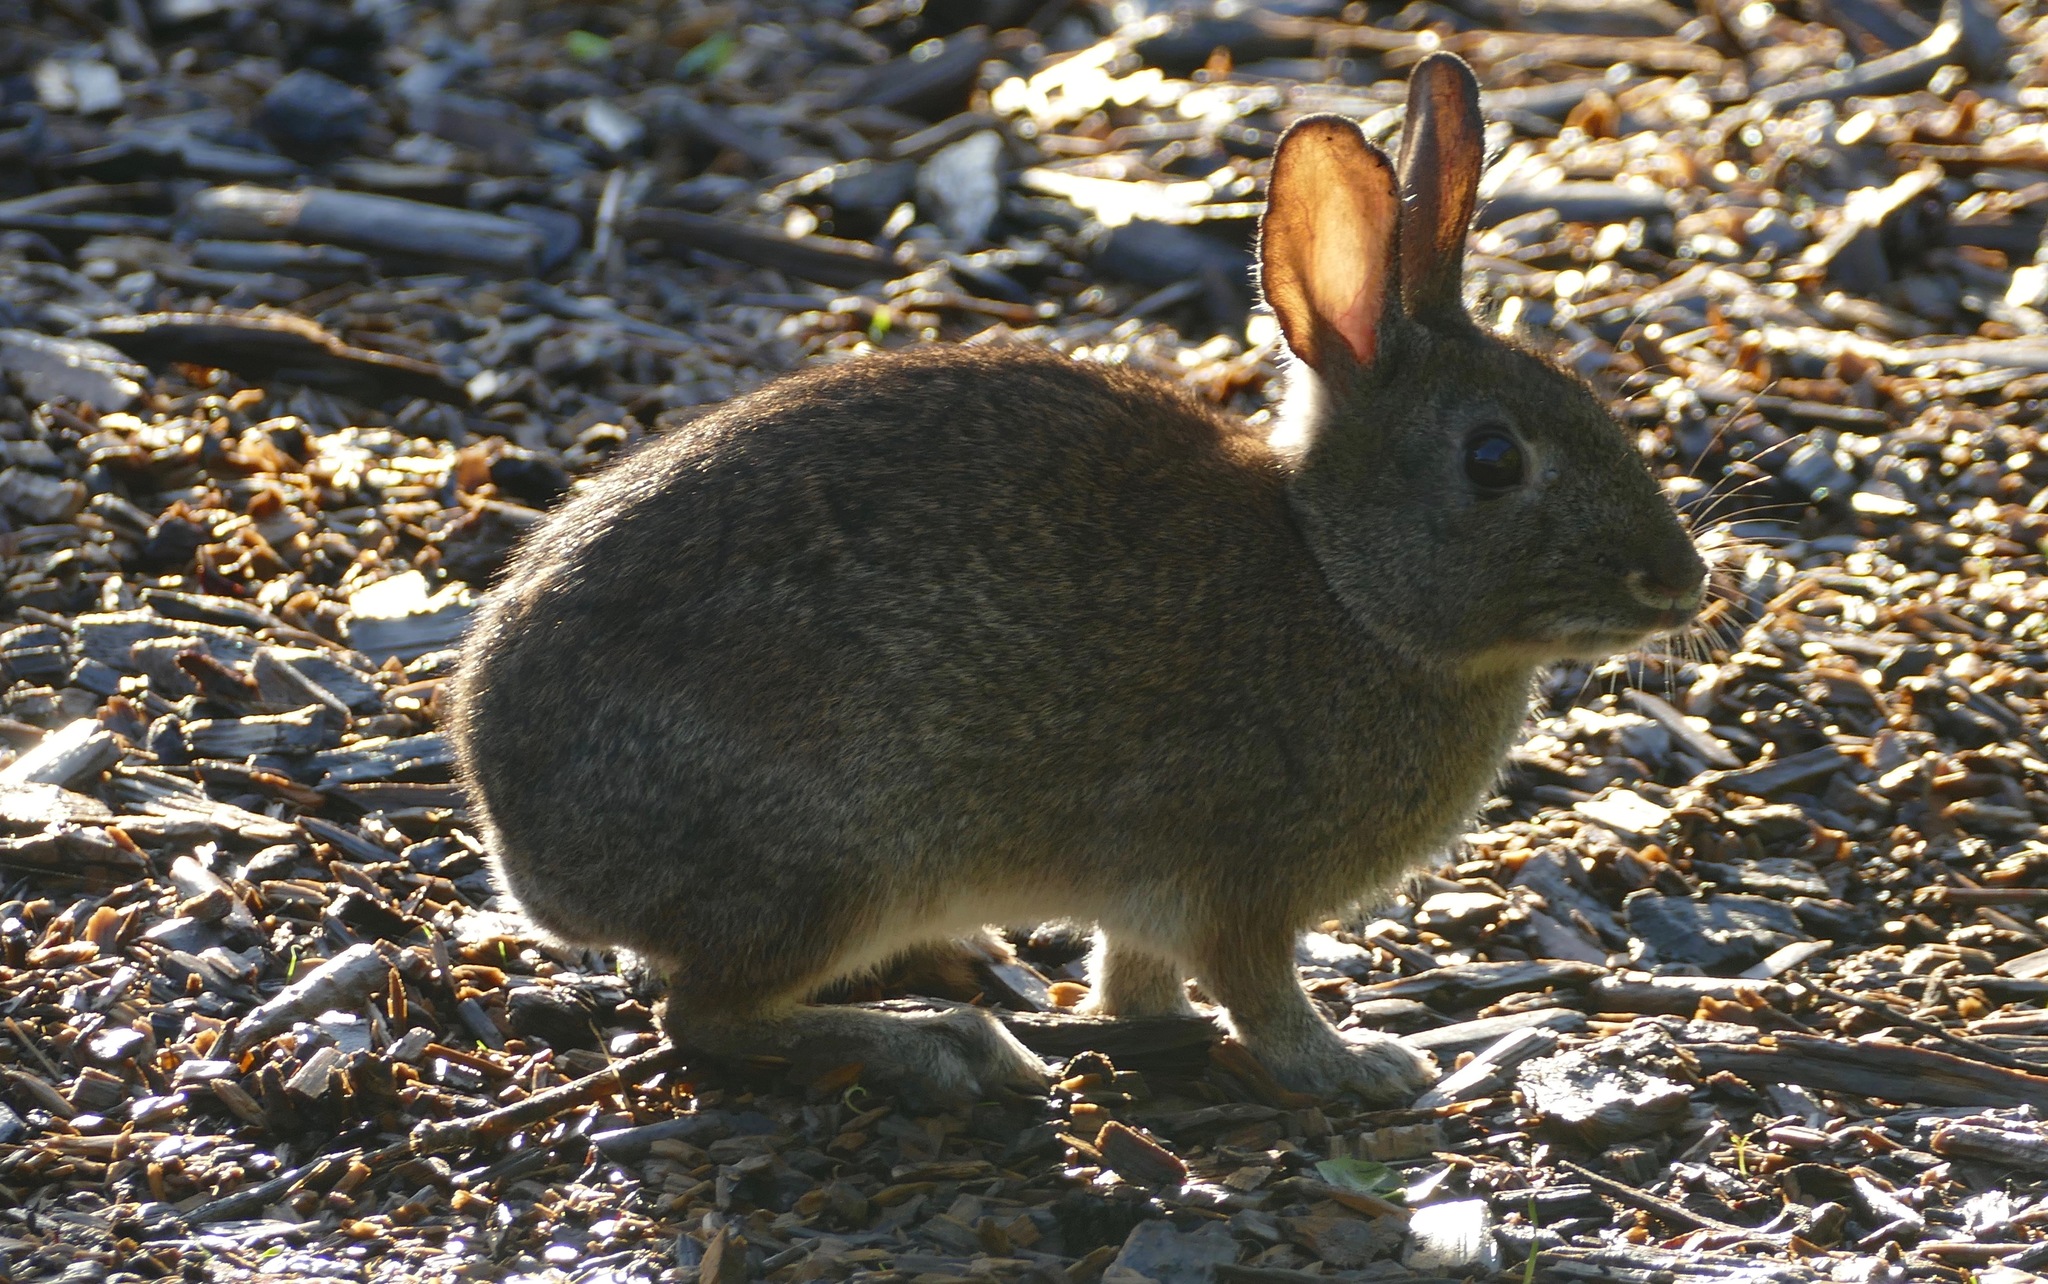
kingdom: Animalia
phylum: Chordata
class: Mammalia
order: Lagomorpha
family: Leporidae
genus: Sylvilagus
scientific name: Sylvilagus bachmani
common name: Brush rabbit
